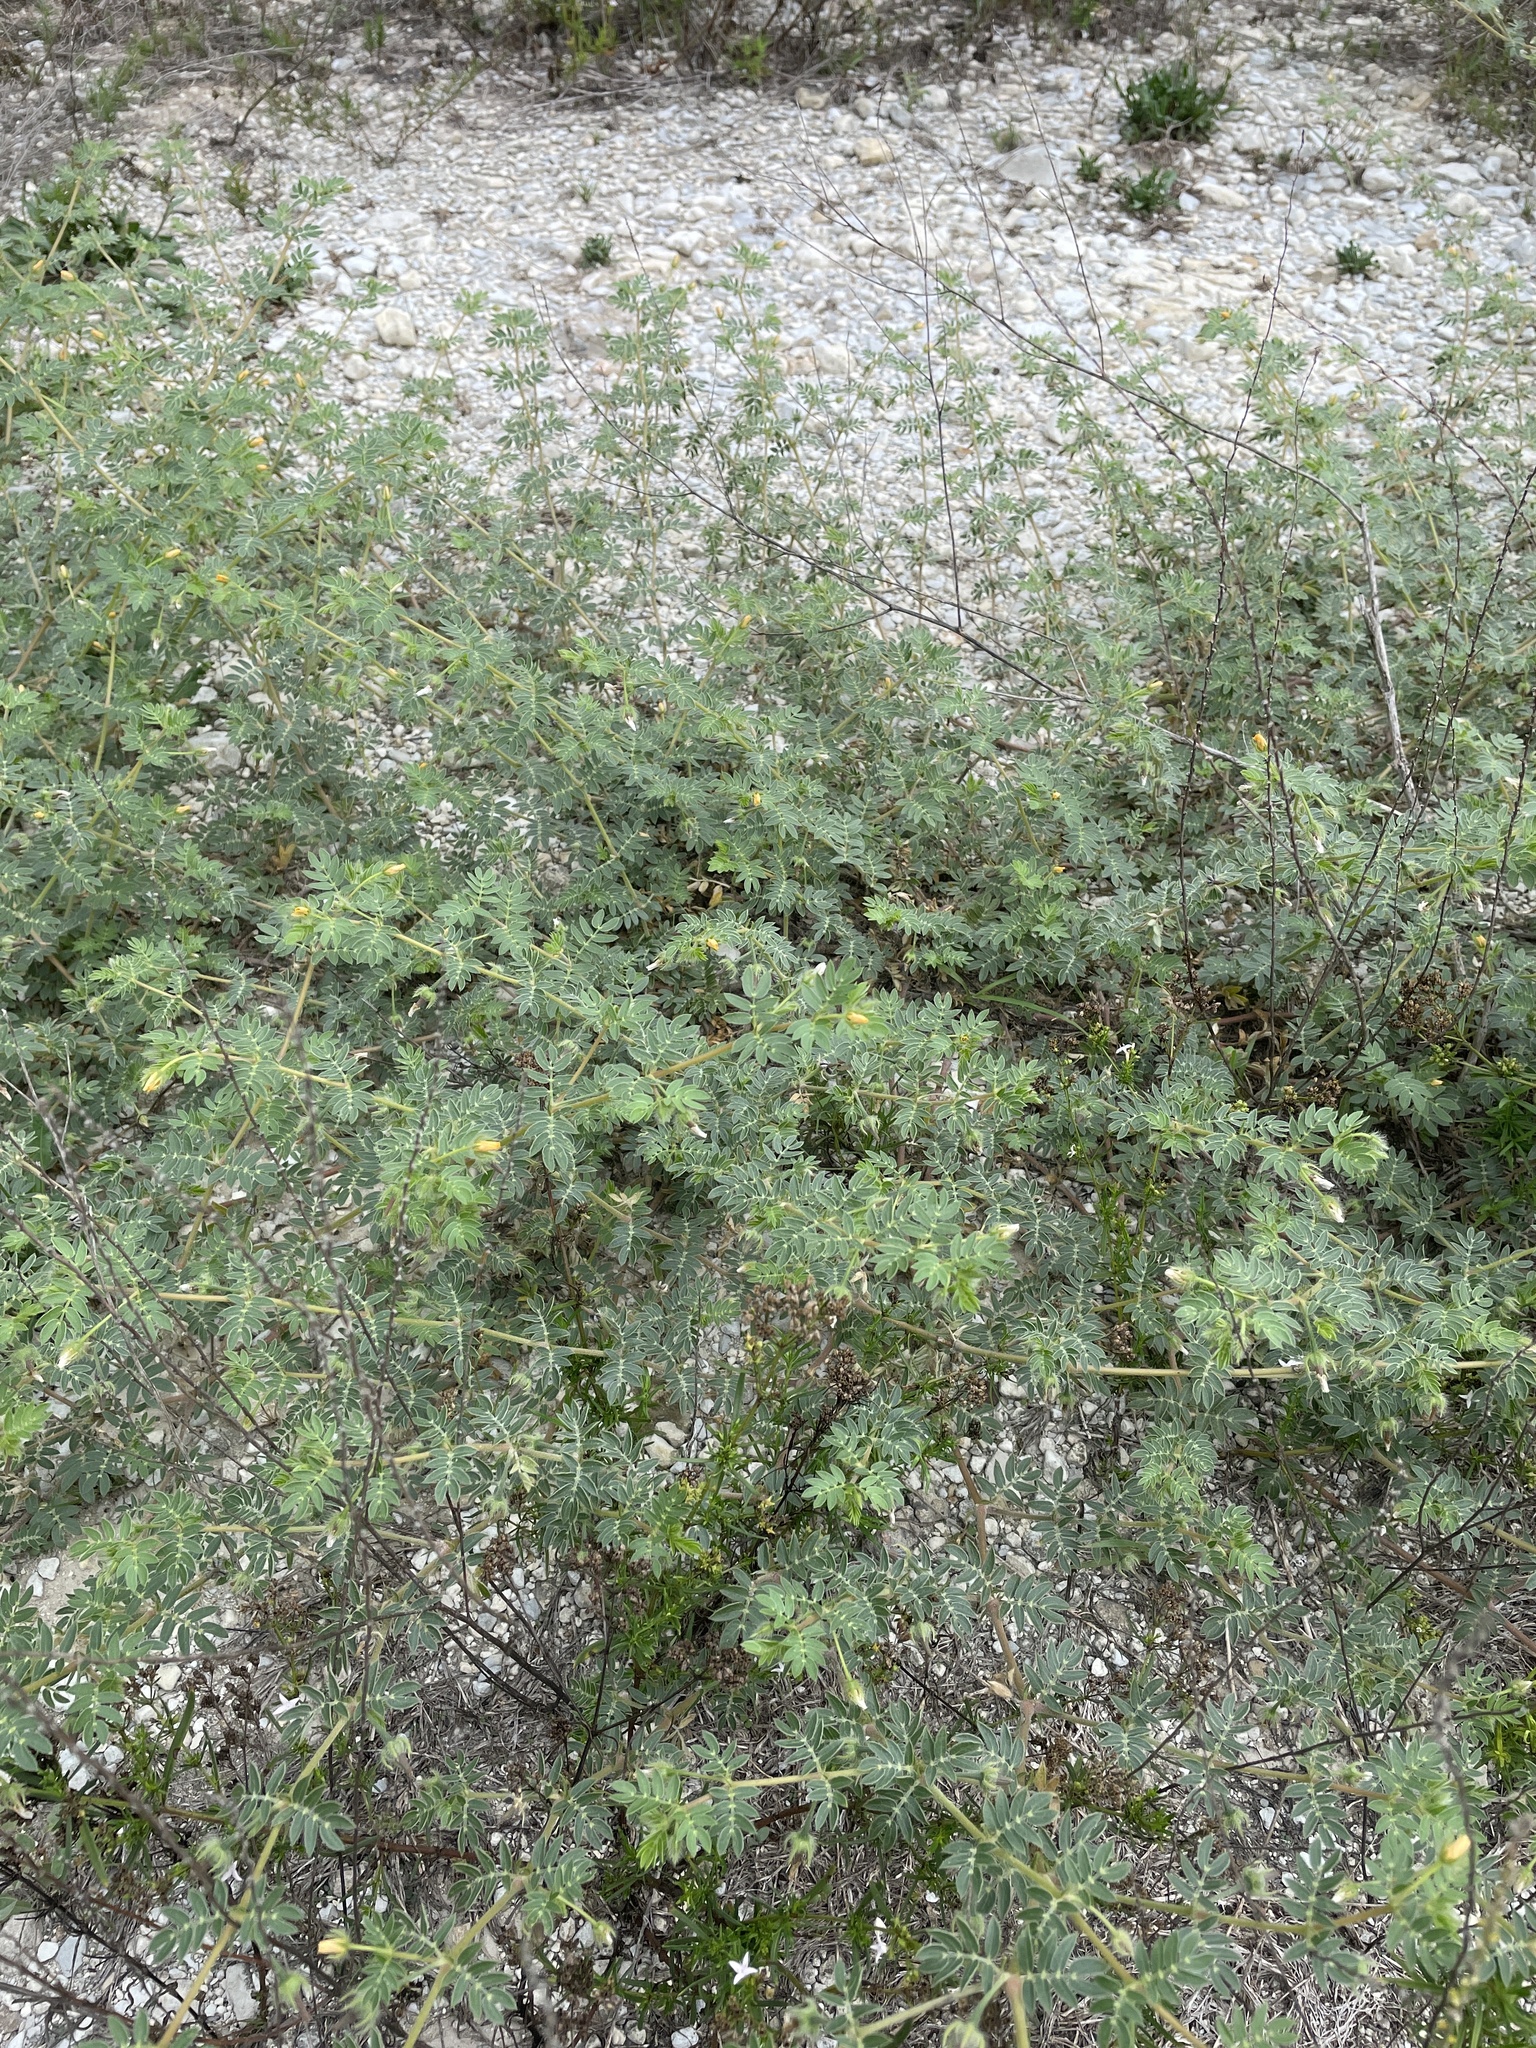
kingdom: Plantae
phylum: Tracheophyta
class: Magnoliopsida
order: Zygophyllales
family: Zygophyllaceae
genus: Kallstroemia
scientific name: Kallstroemia parviflora
